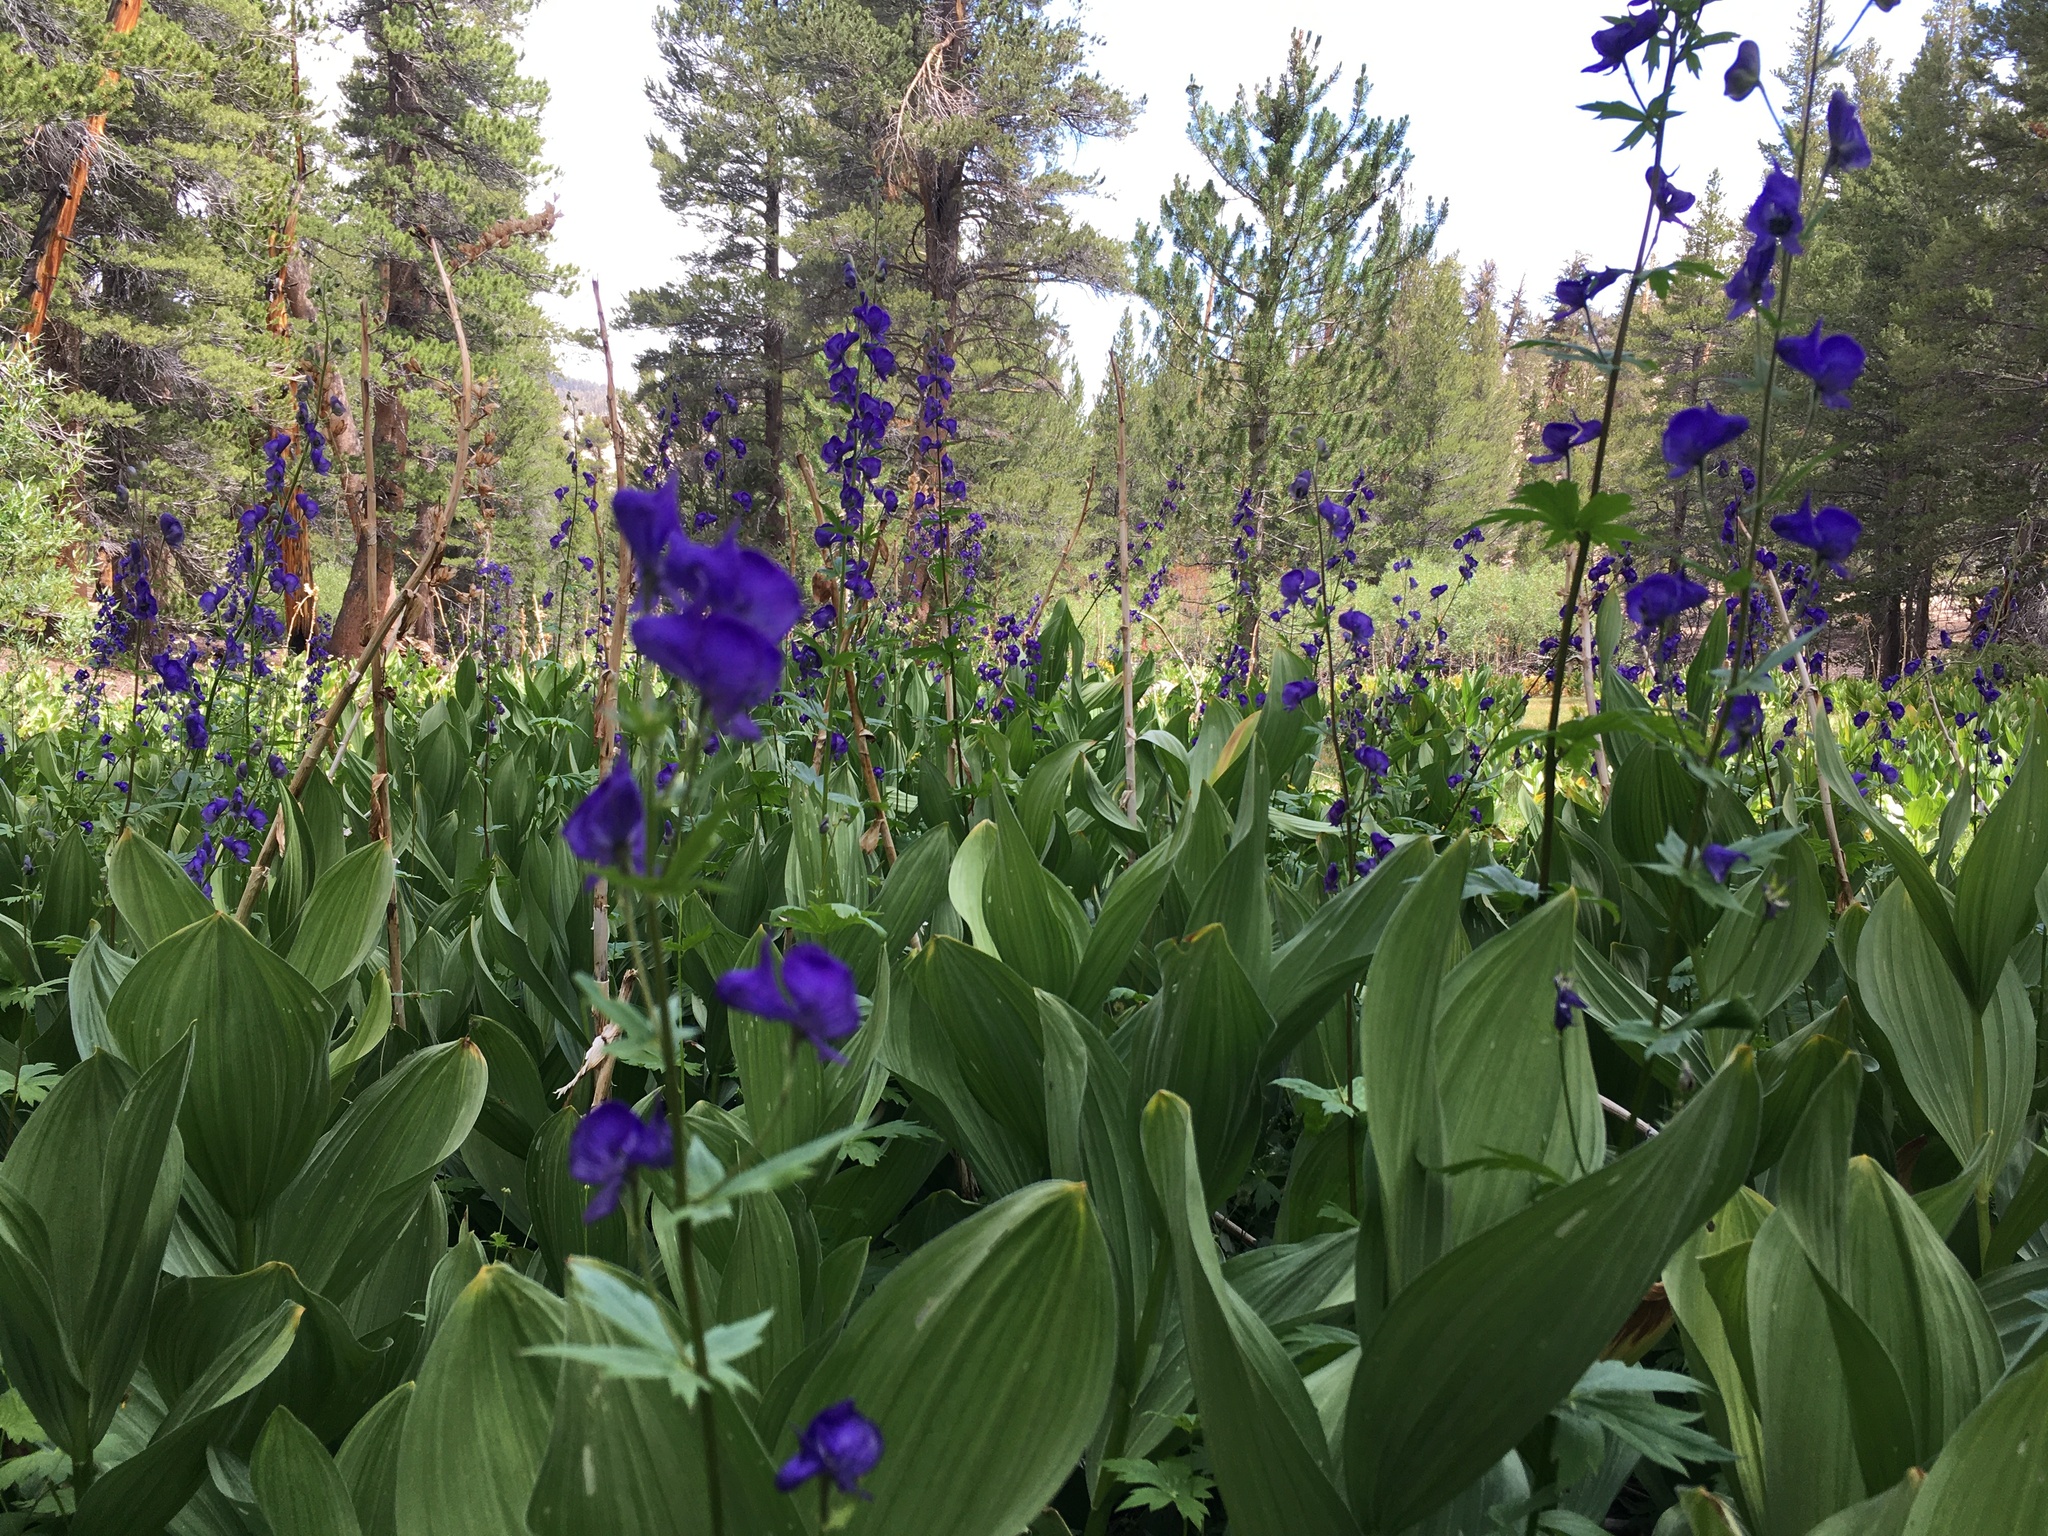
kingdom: Plantae
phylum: Tracheophyta
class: Liliopsida
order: Liliales
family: Melanthiaceae
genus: Veratrum
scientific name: Veratrum californicum
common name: California veratrum
